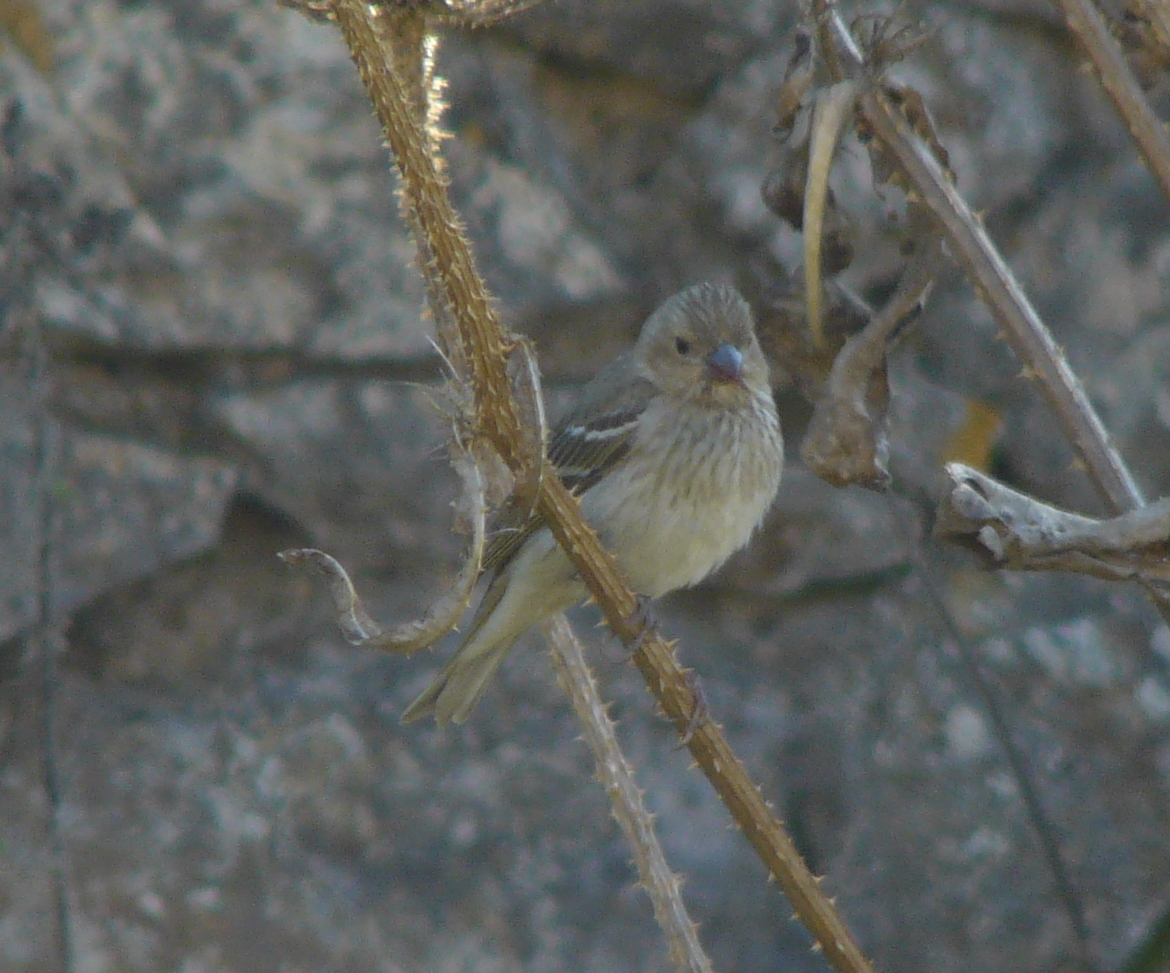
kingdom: Animalia
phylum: Chordata
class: Aves
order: Passeriformes
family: Fringillidae
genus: Carpodacus
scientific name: Carpodacus erythrinus
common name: Common rosefinch
